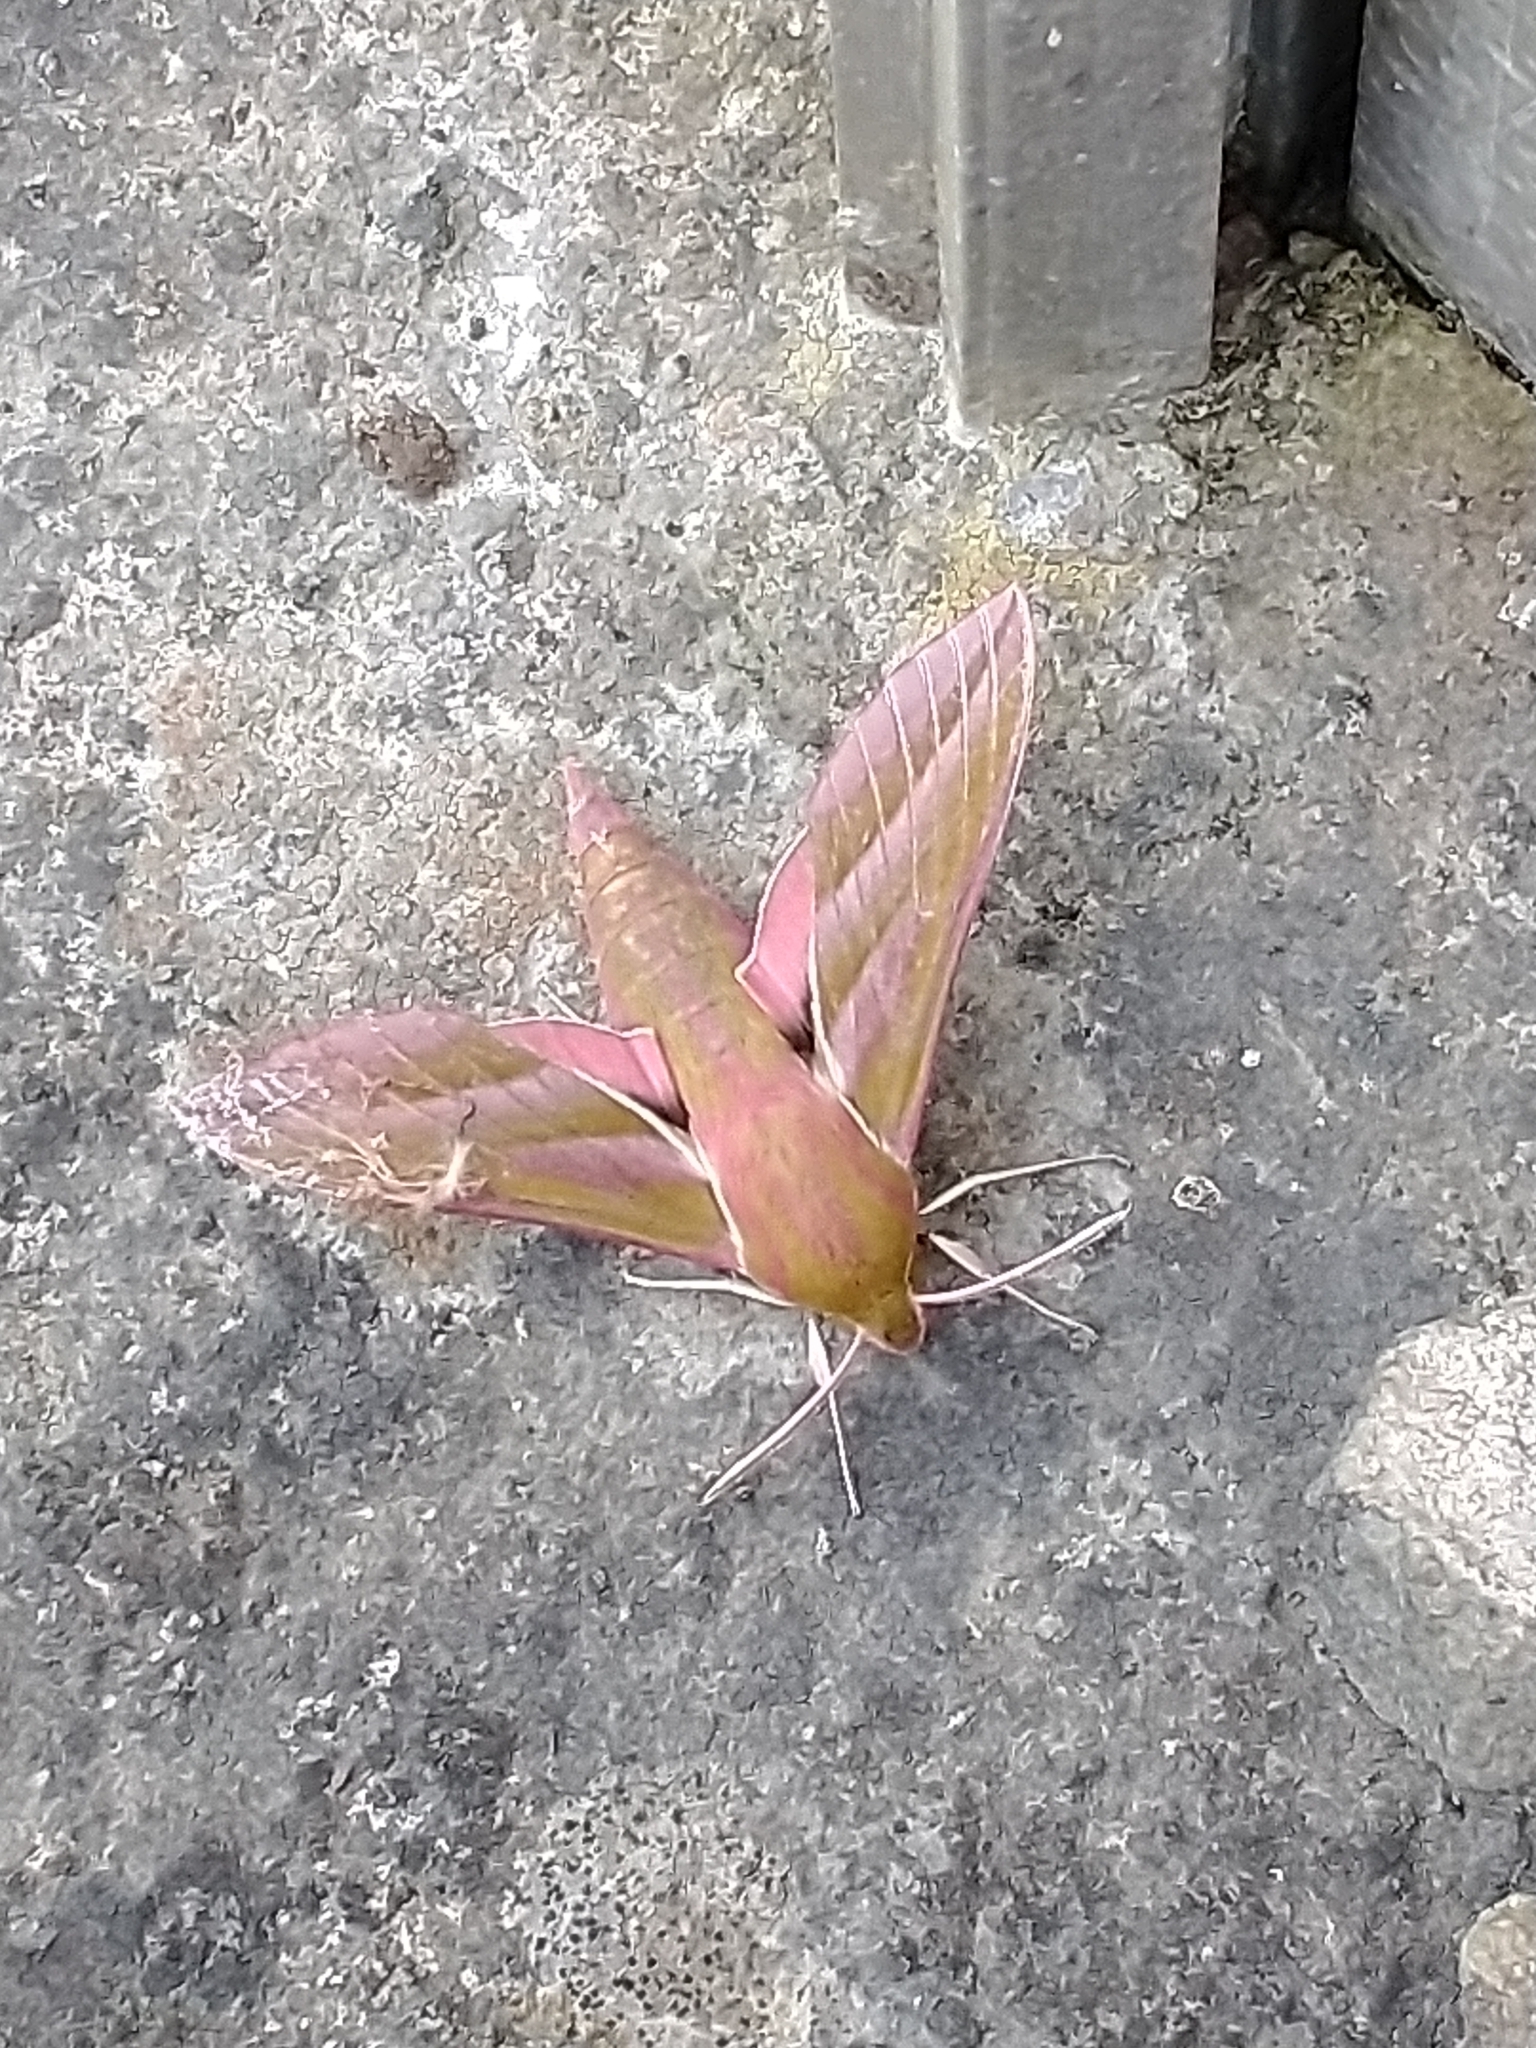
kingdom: Animalia
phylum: Arthropoda
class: Insecta
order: Lepidoptera
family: Sphingidae
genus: Deilephila
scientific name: Deilephila elpenor
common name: Elephant hawk-moth
